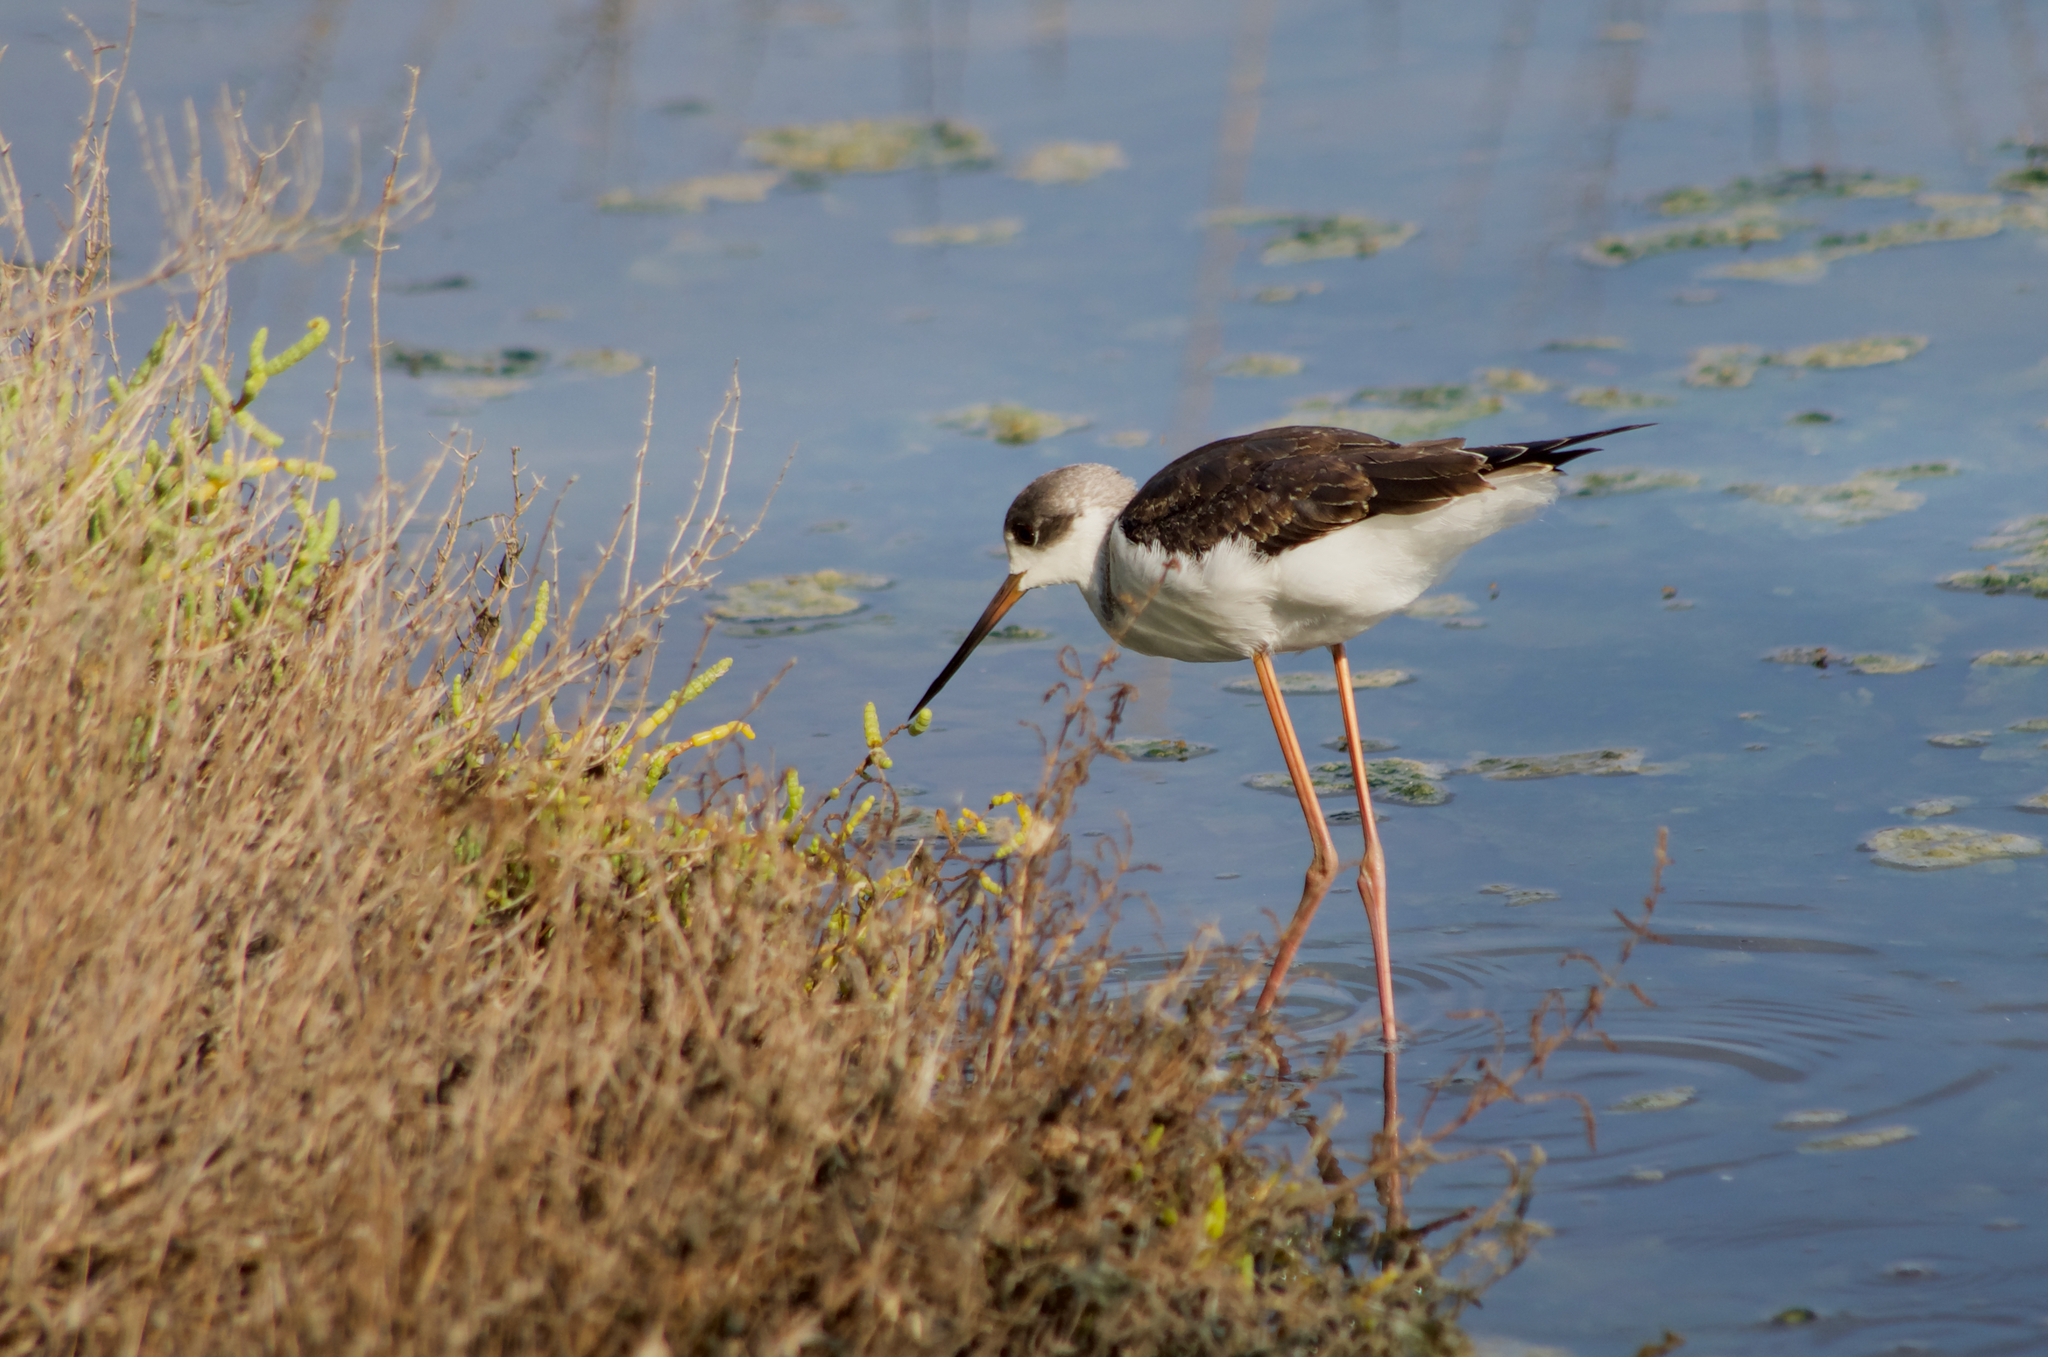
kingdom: Animalia
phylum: Chordata
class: Aves
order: Charadriiformes
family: Recurvirostridae
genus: Himantopus
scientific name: Himantopus himantopus
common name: Black-winged stilt
